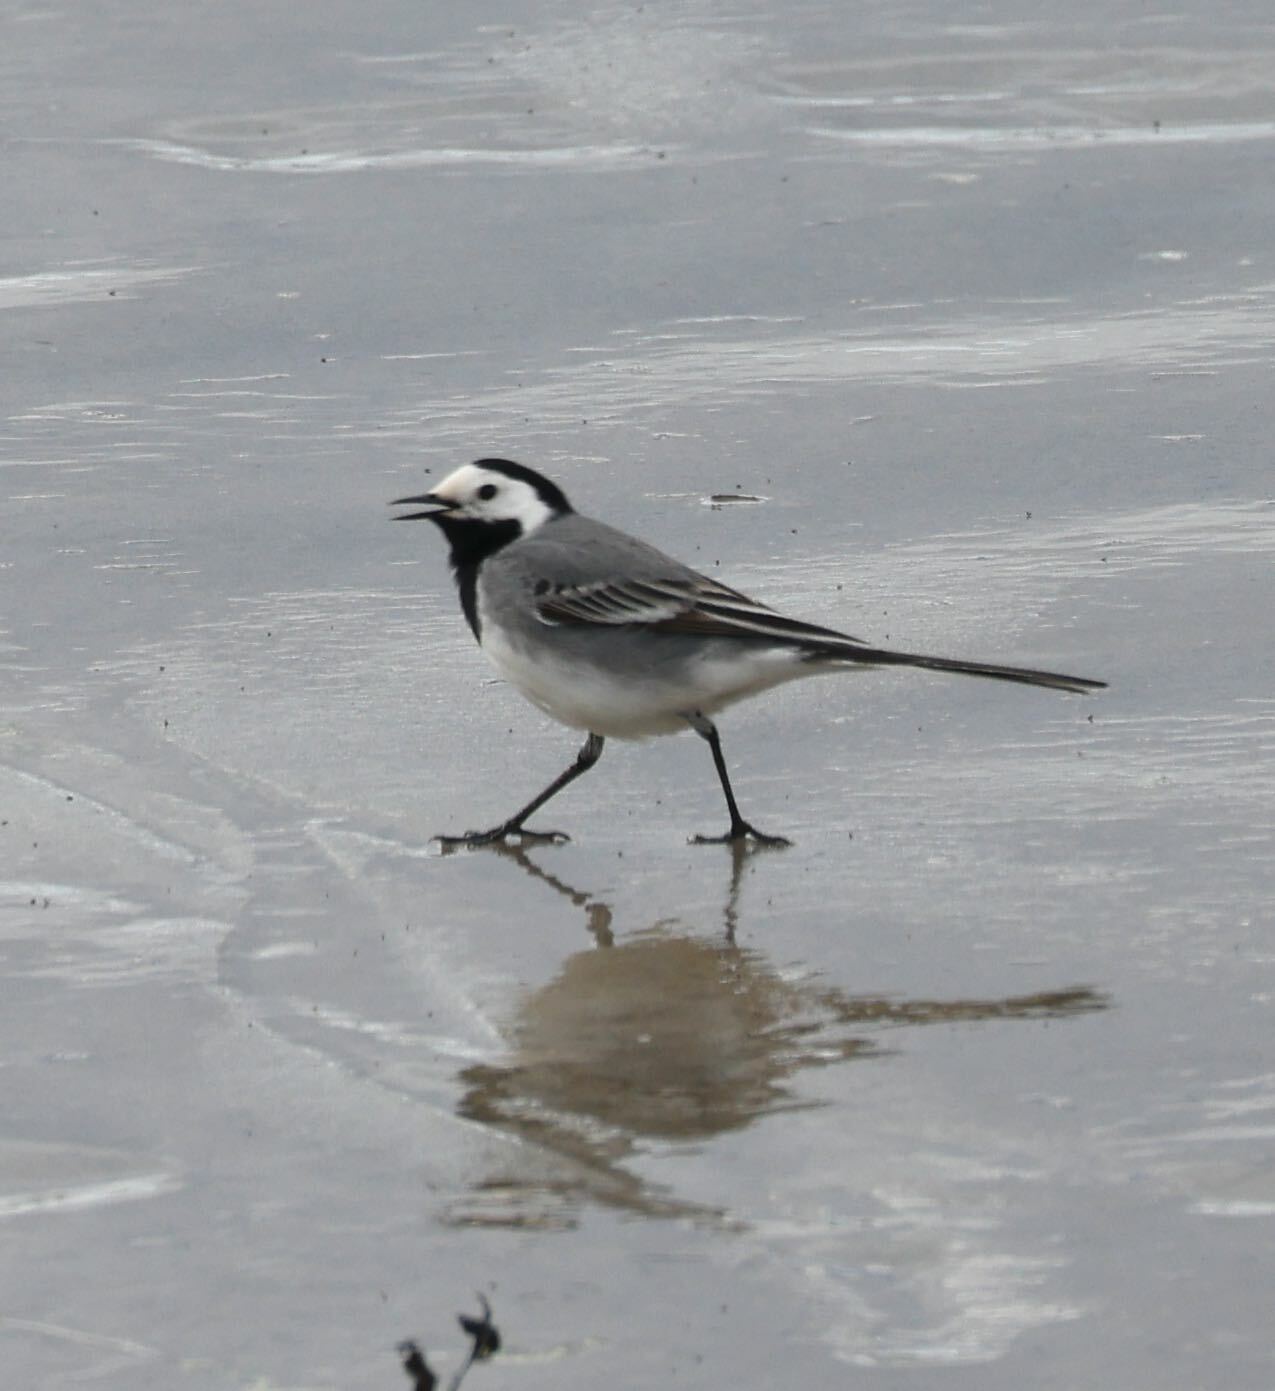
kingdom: Animalia
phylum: Chordata
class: Aves
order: Passeriformes
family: Motacillidae
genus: Motacilla
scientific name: Motacilla alba
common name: White wagtail
